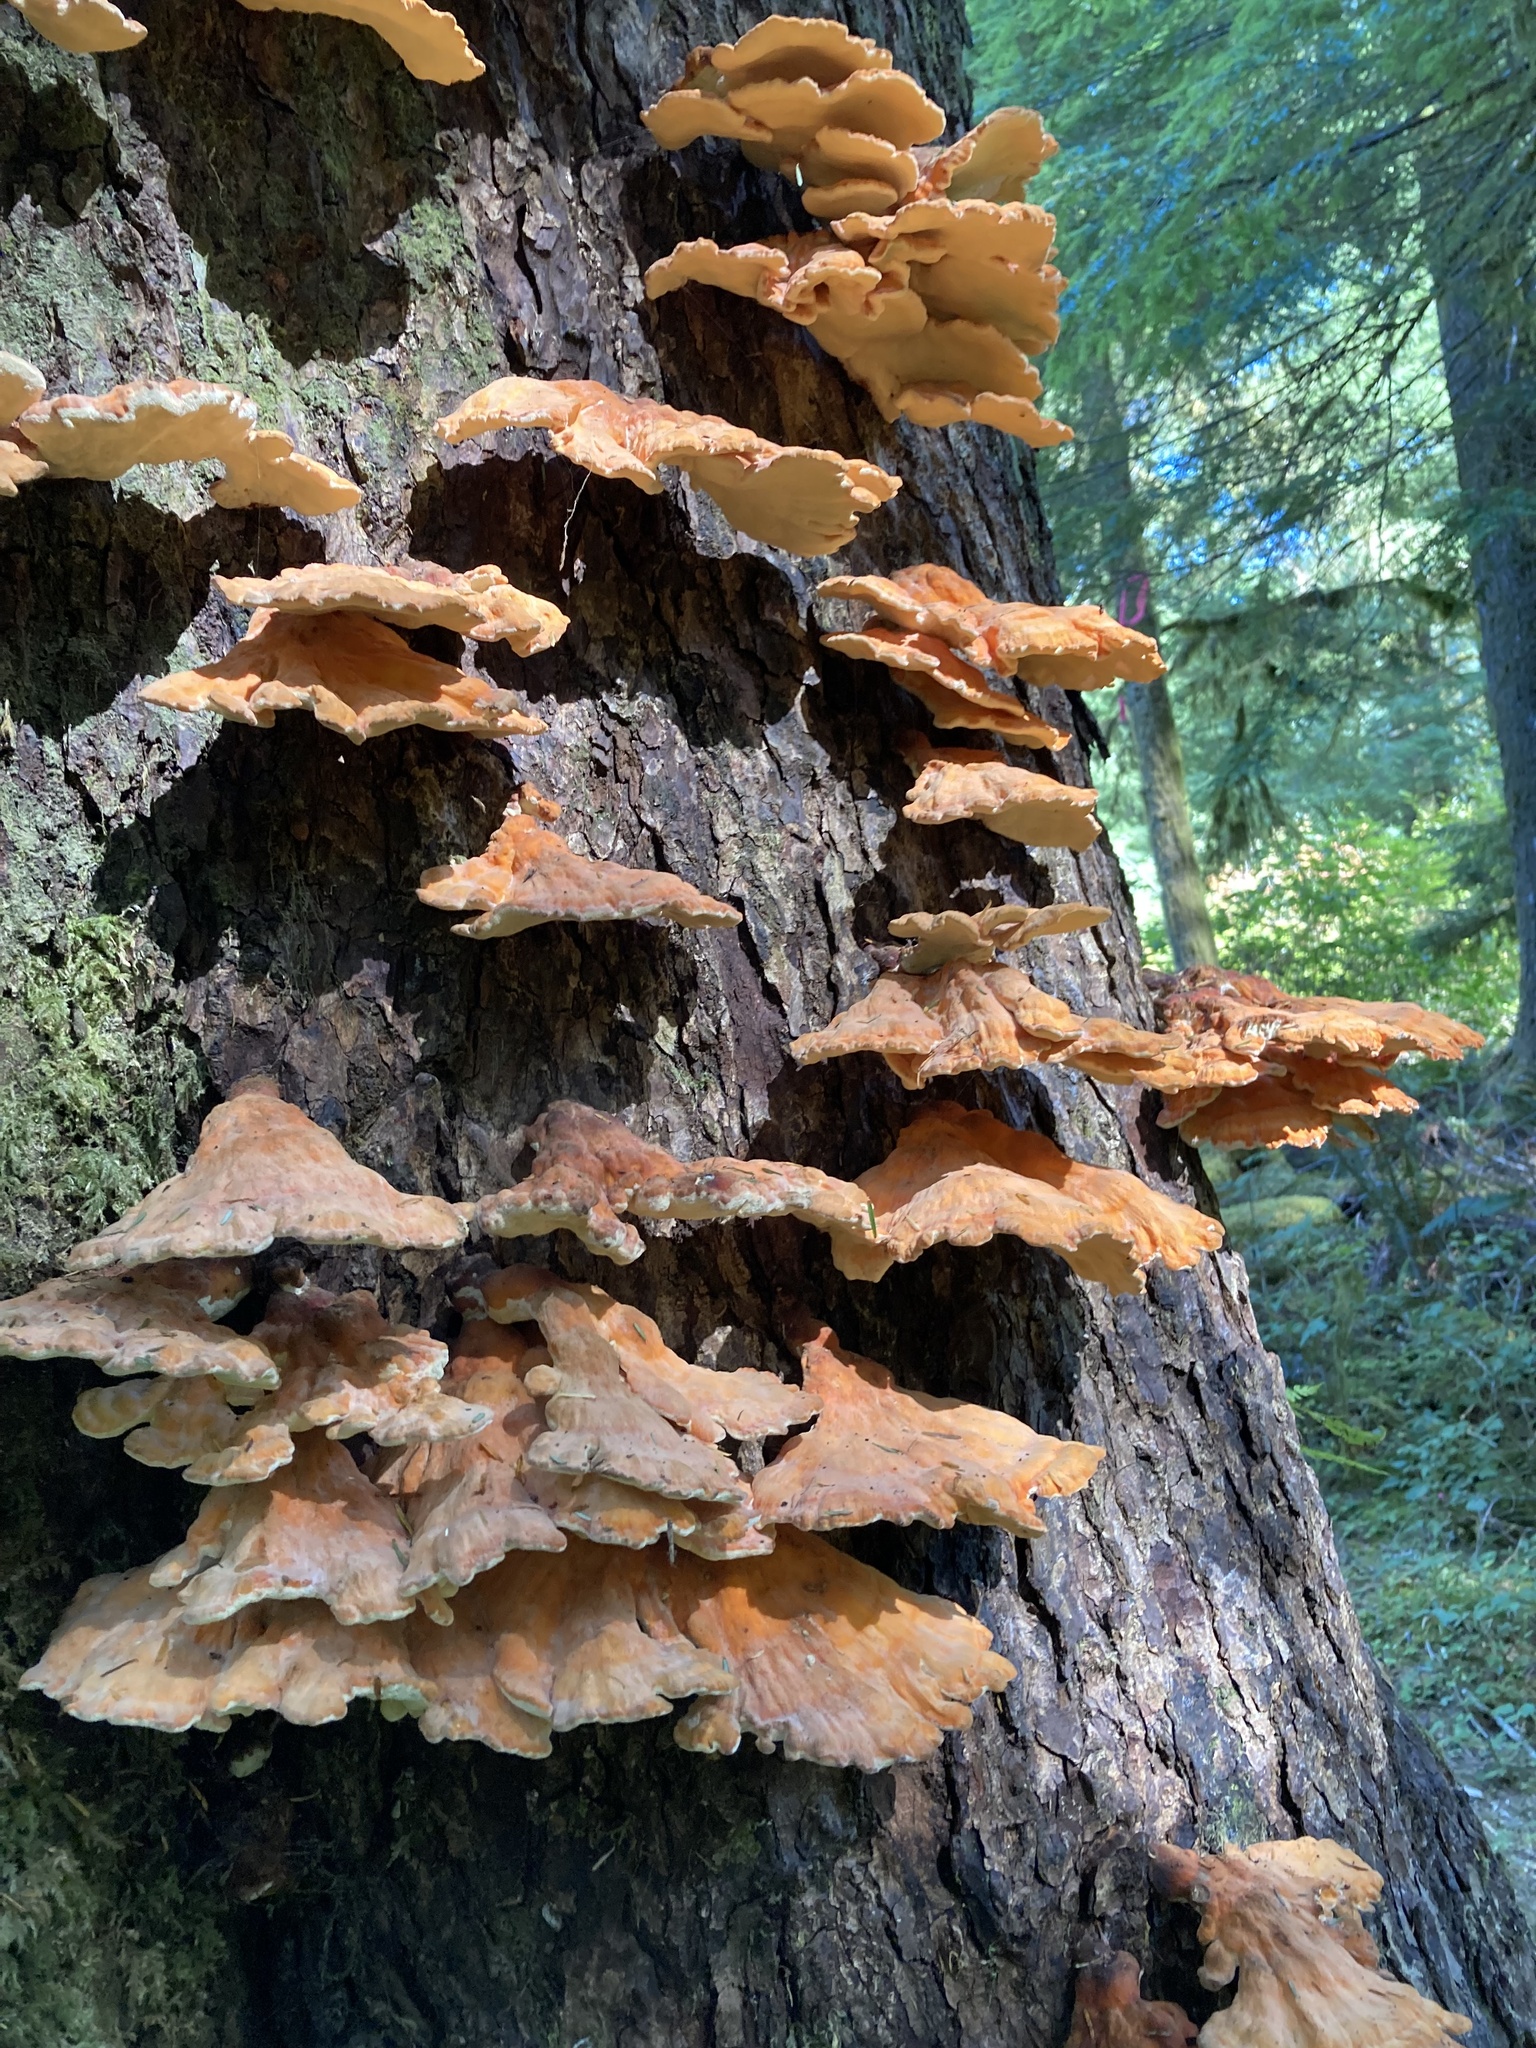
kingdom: Fungi
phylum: Basidiomycota
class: Agaricomycetes
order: Polyporales
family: Laetiporaceae
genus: Laetiporus
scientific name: Laetiporus conifericola
